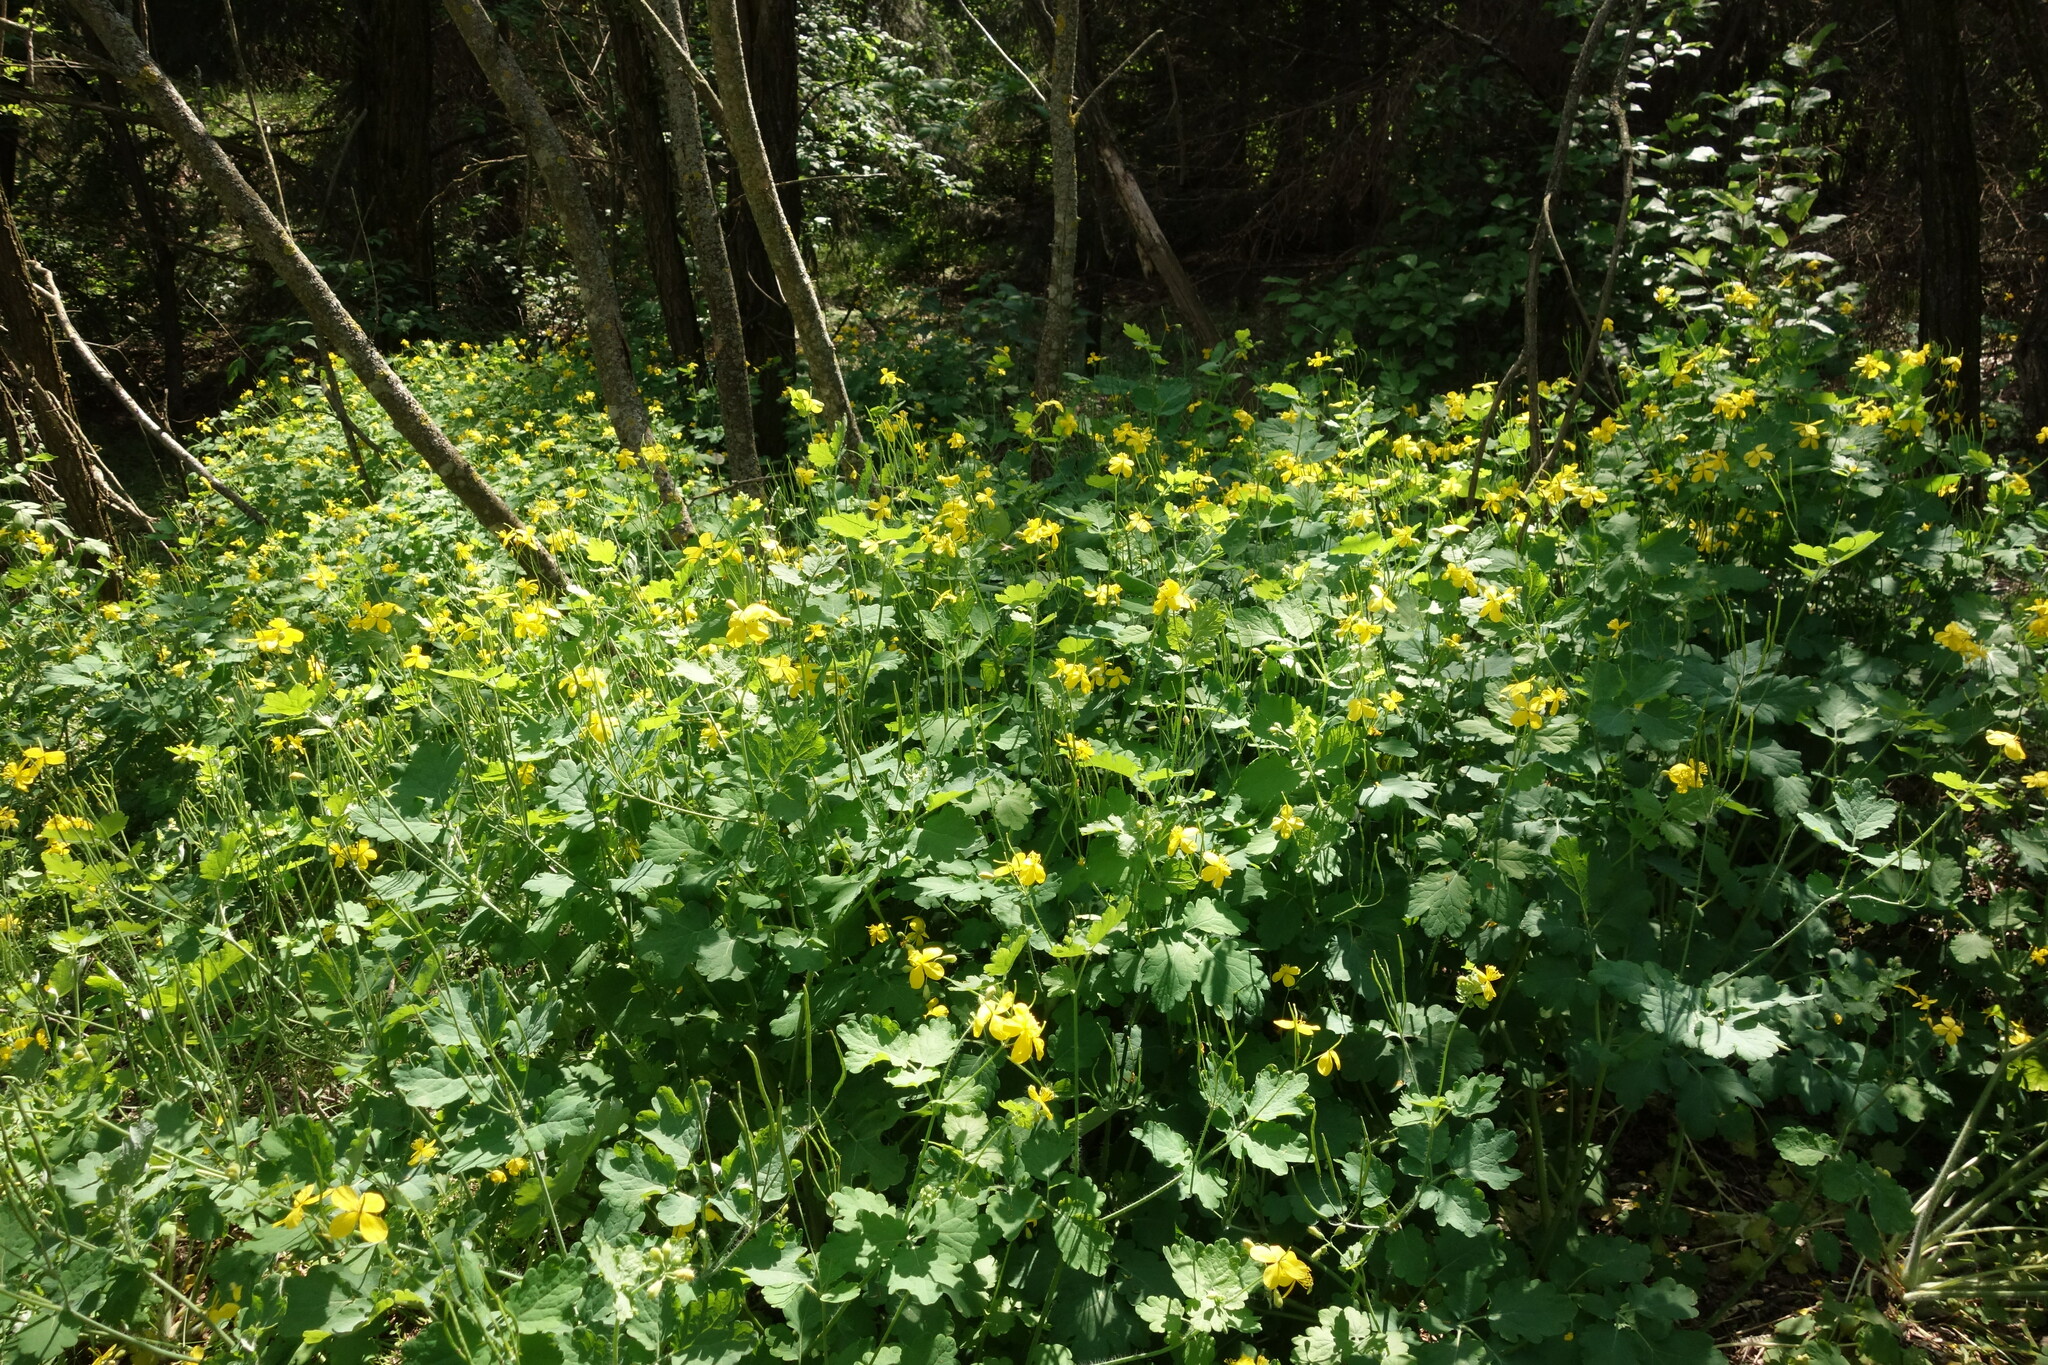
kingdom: Plantae
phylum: Tracheophyta
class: Magnoliopsida
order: Ranunculales
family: Papaveraceae
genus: Chelidonium
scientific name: Chelidonium majus
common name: Greater celandine
